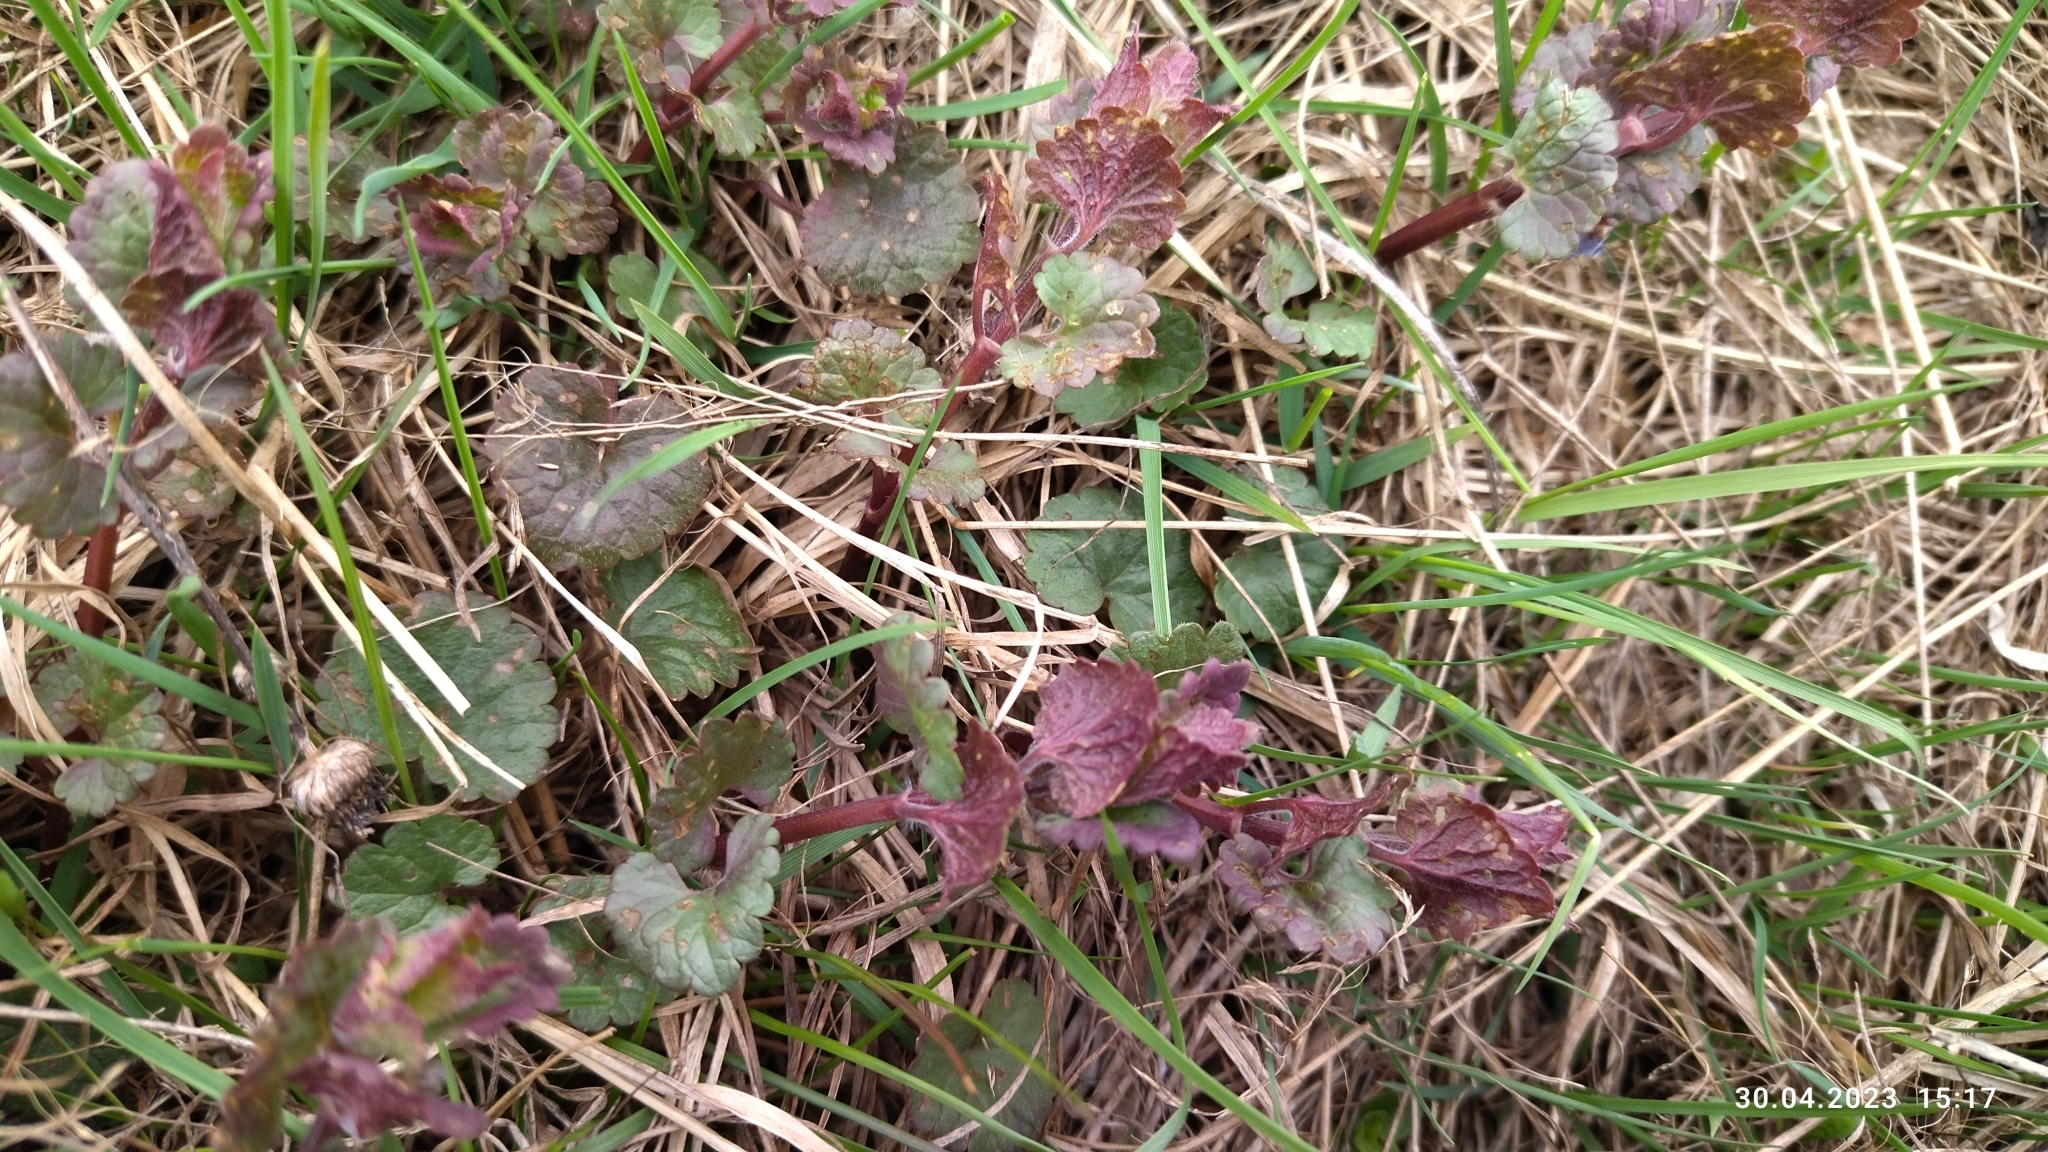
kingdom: Plantae
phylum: Tracheophyta
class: Magnoliopsida
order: Lamiales
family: Lamiaceae
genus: Glechoma
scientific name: Glechoma hederacea
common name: Ground ivy
